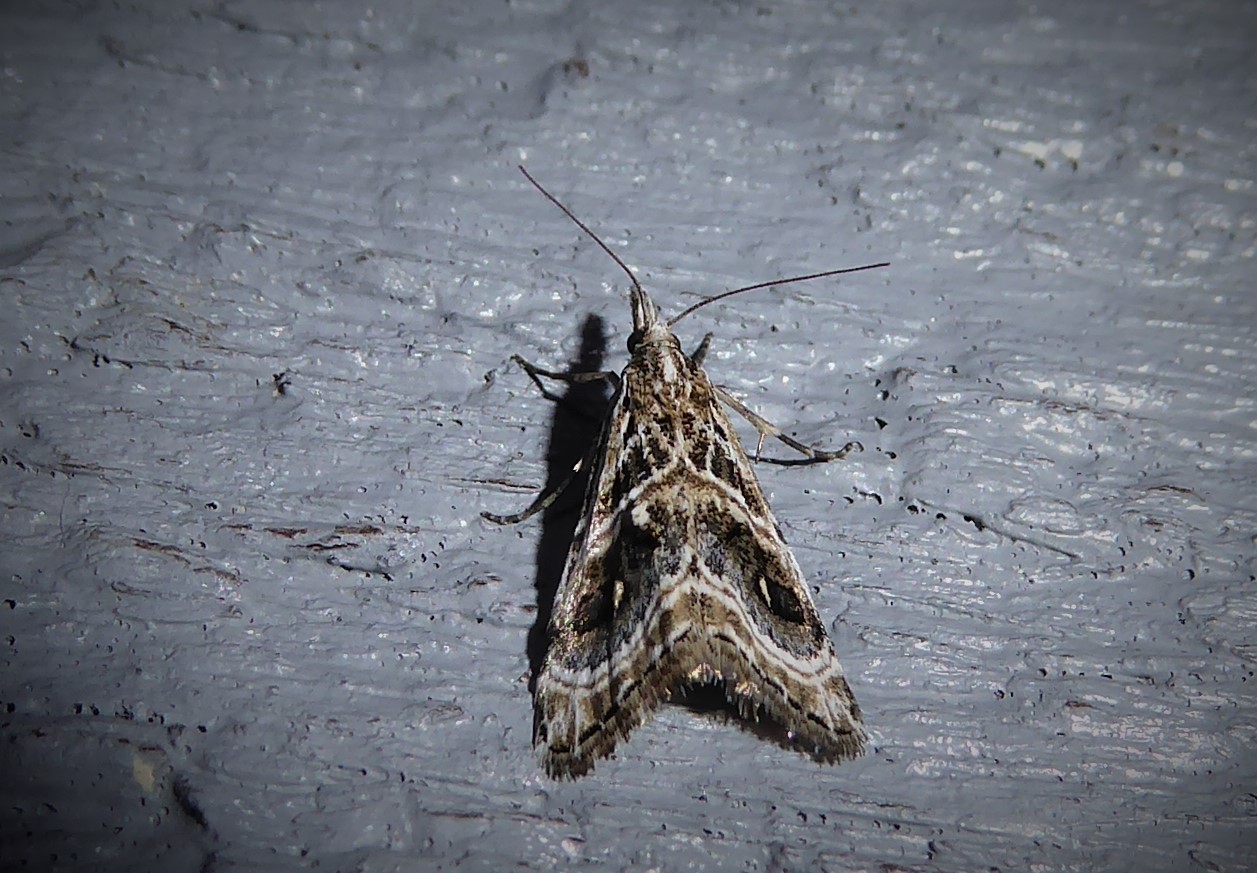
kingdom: Animalia
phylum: Arthropoda
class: Insecta
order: Lepidoptera
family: Crambidae
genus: Gadira
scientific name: Gadira acerella
